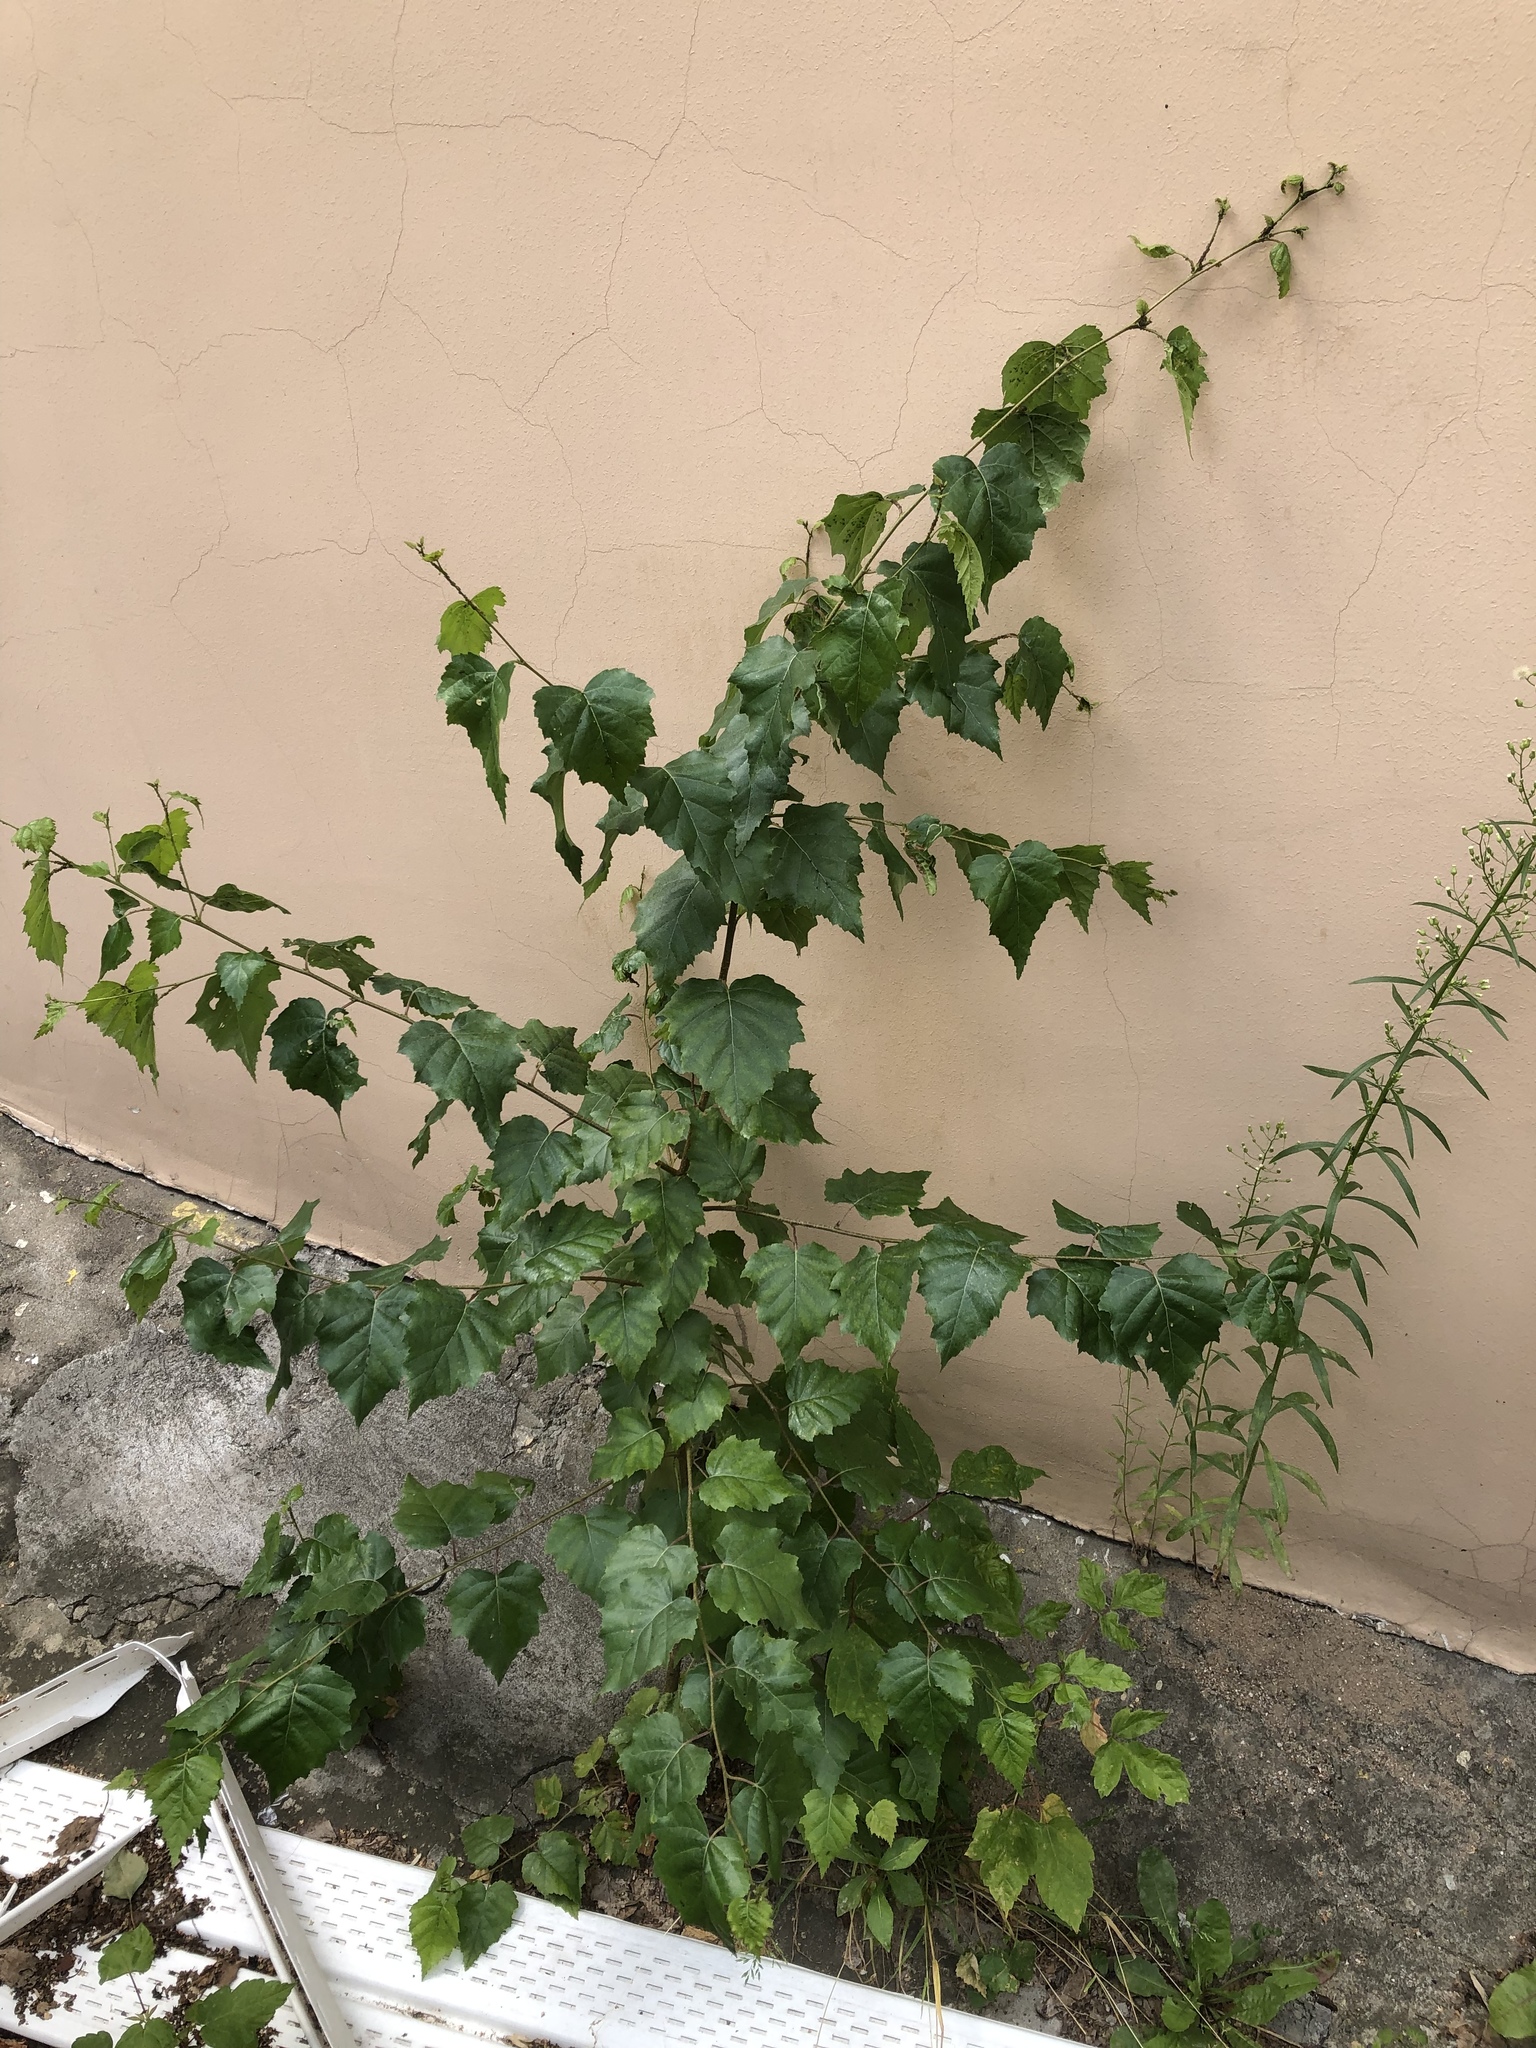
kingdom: Plantae
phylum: Tracheophyta
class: Magnoliopsida
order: Fagales
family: Betulaceae
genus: Betula
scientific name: Betula pendula
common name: Silver birch
